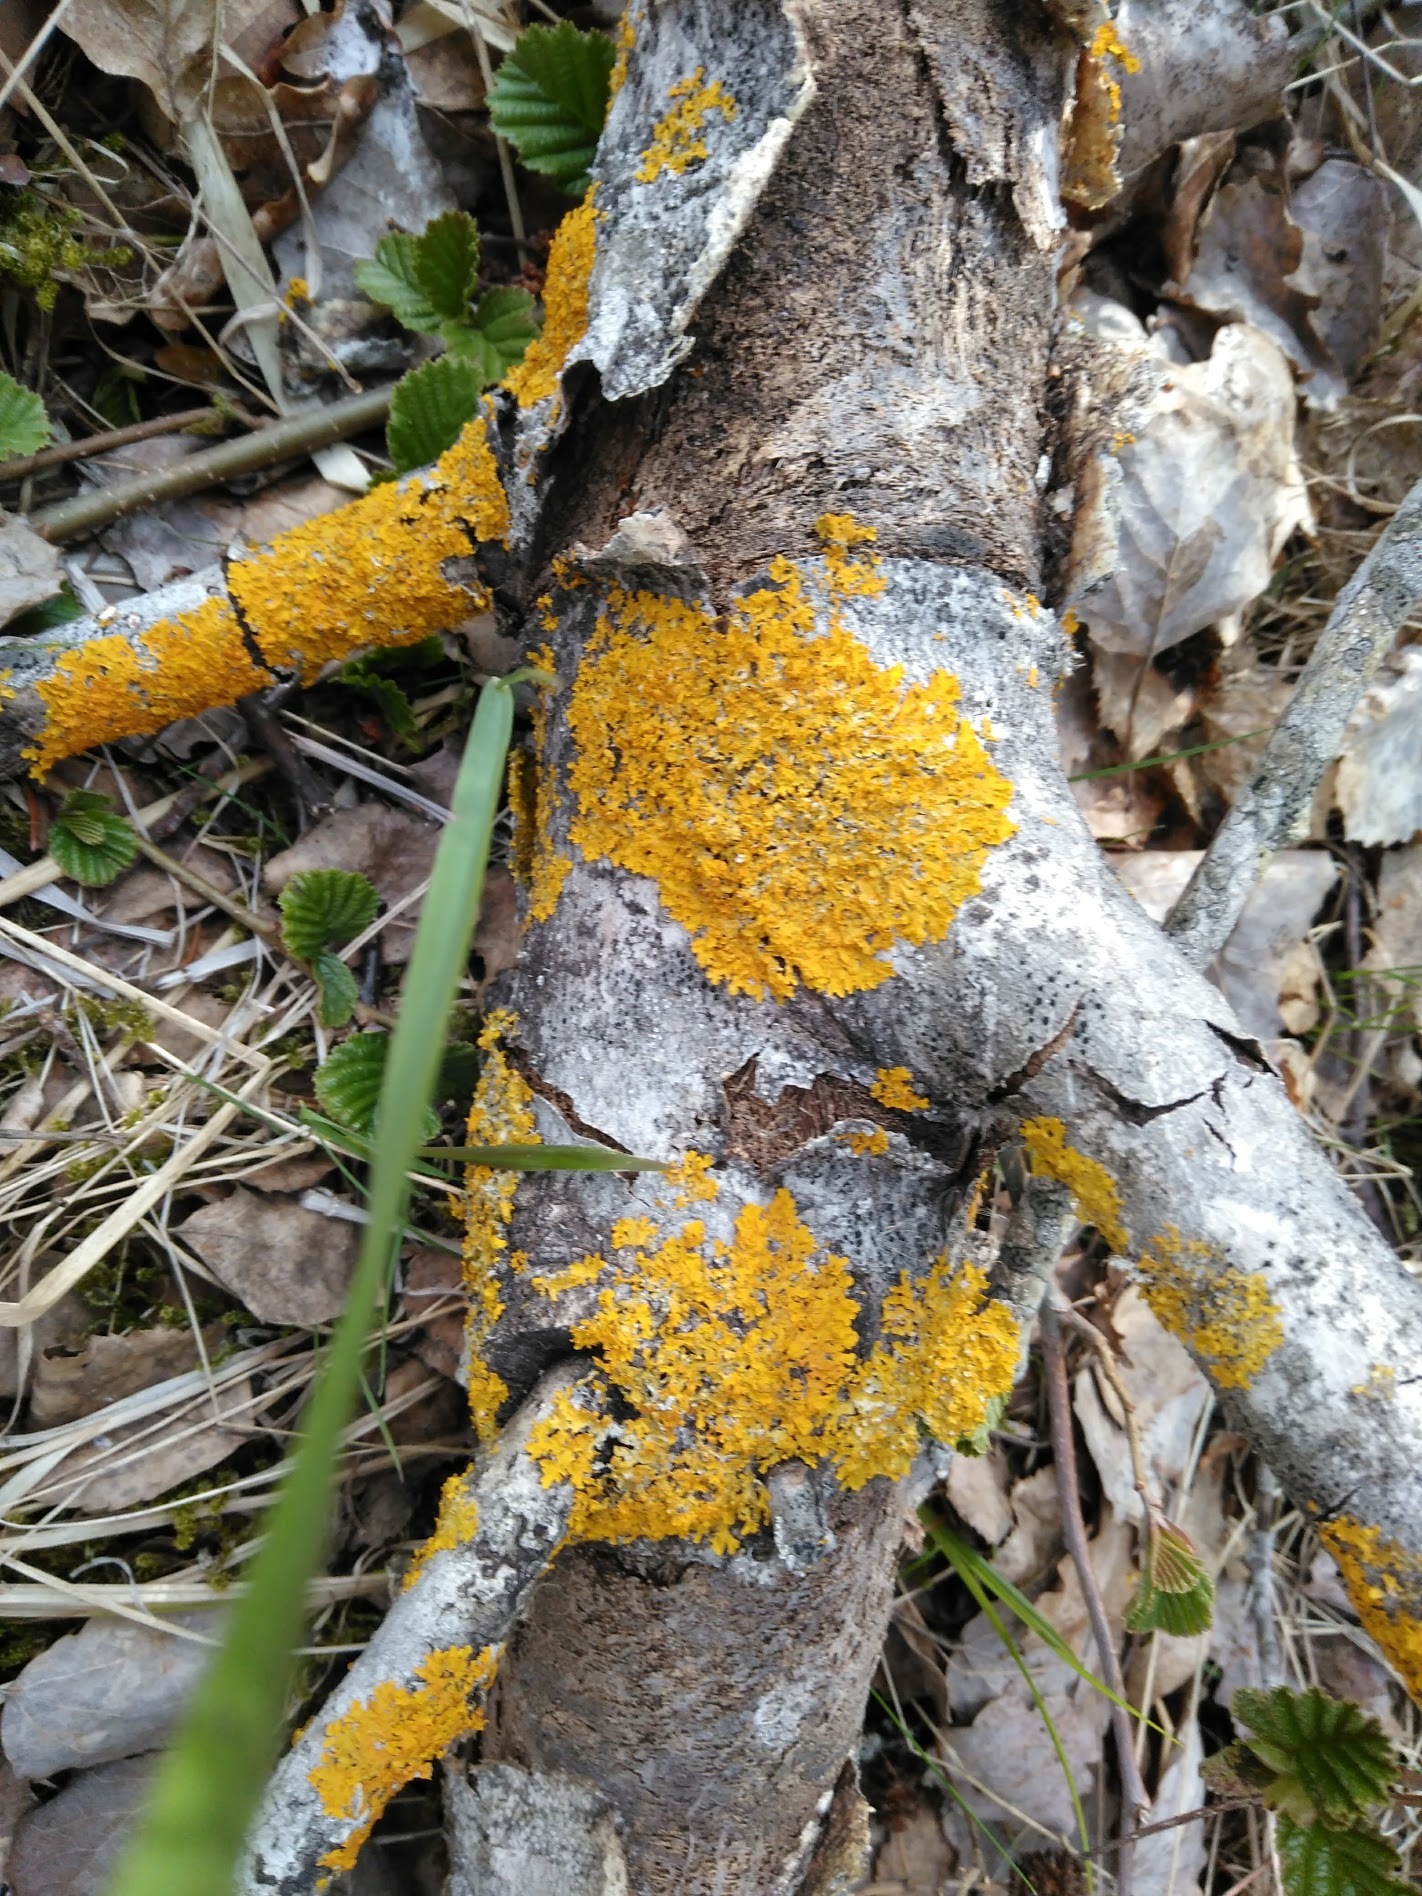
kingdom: Fungi
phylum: Ascomycota
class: Lecanoromycetes
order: Teloschistales
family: Teloschistaceae
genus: Xanthoria
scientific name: Xanthoria parietina
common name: Common orange lichen
